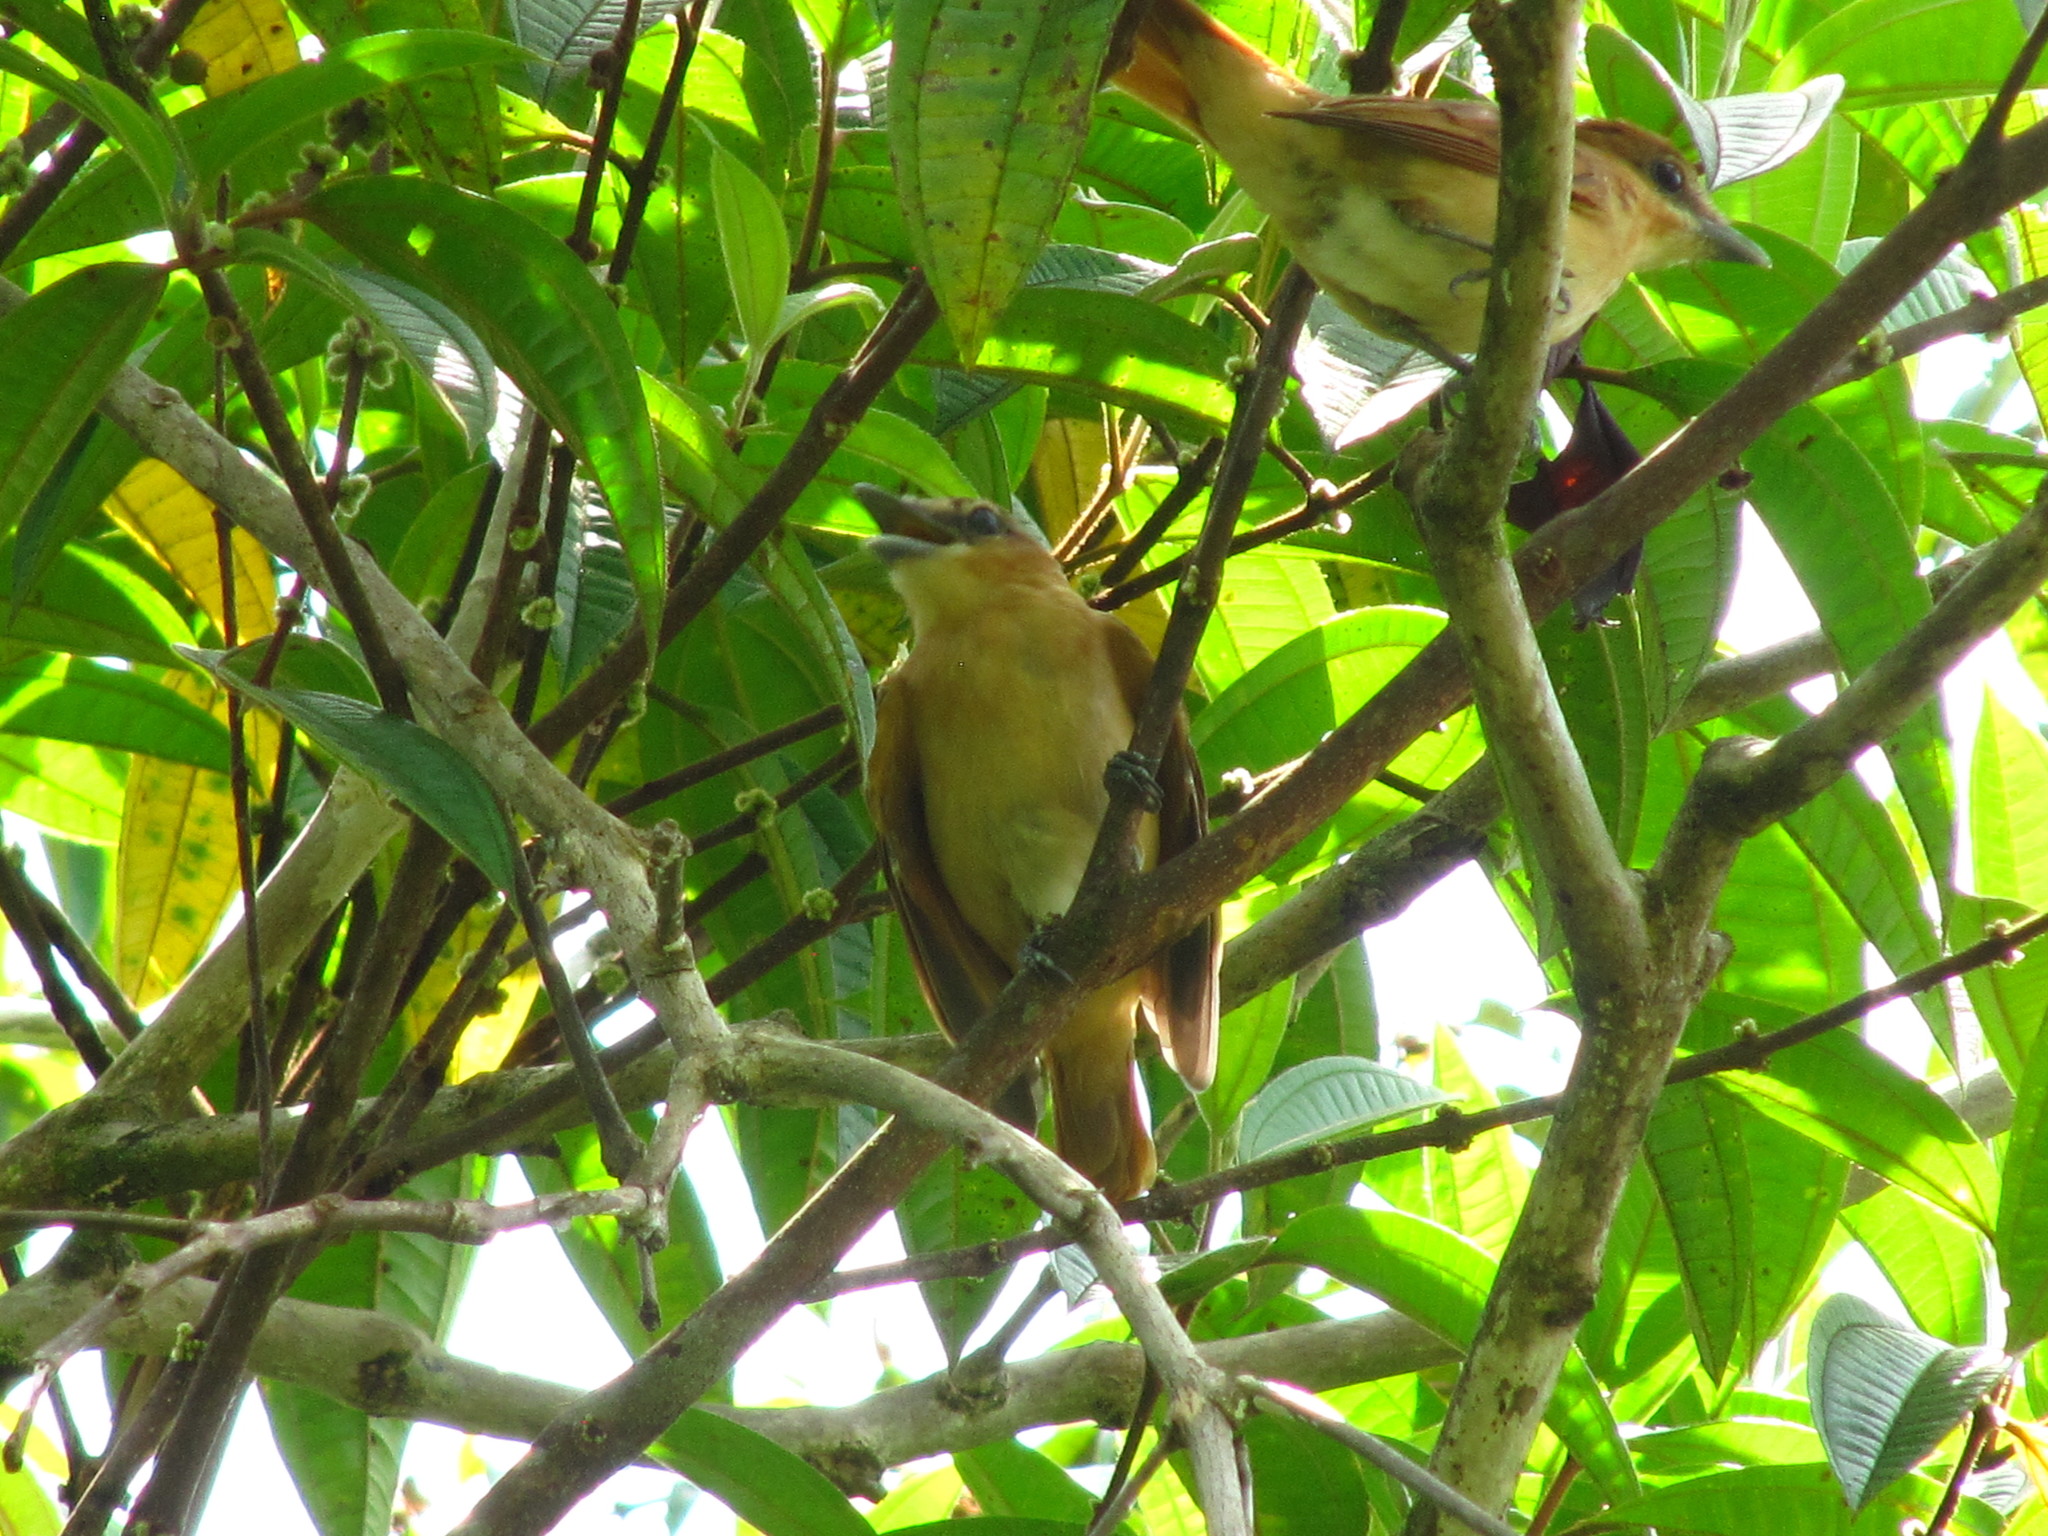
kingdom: Animalia
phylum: Chordata
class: Aves
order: Passeriformes
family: Cotingidae
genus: Pachyramphus
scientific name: Pachyramphus cinnamomeus
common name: Cinnamon becard
